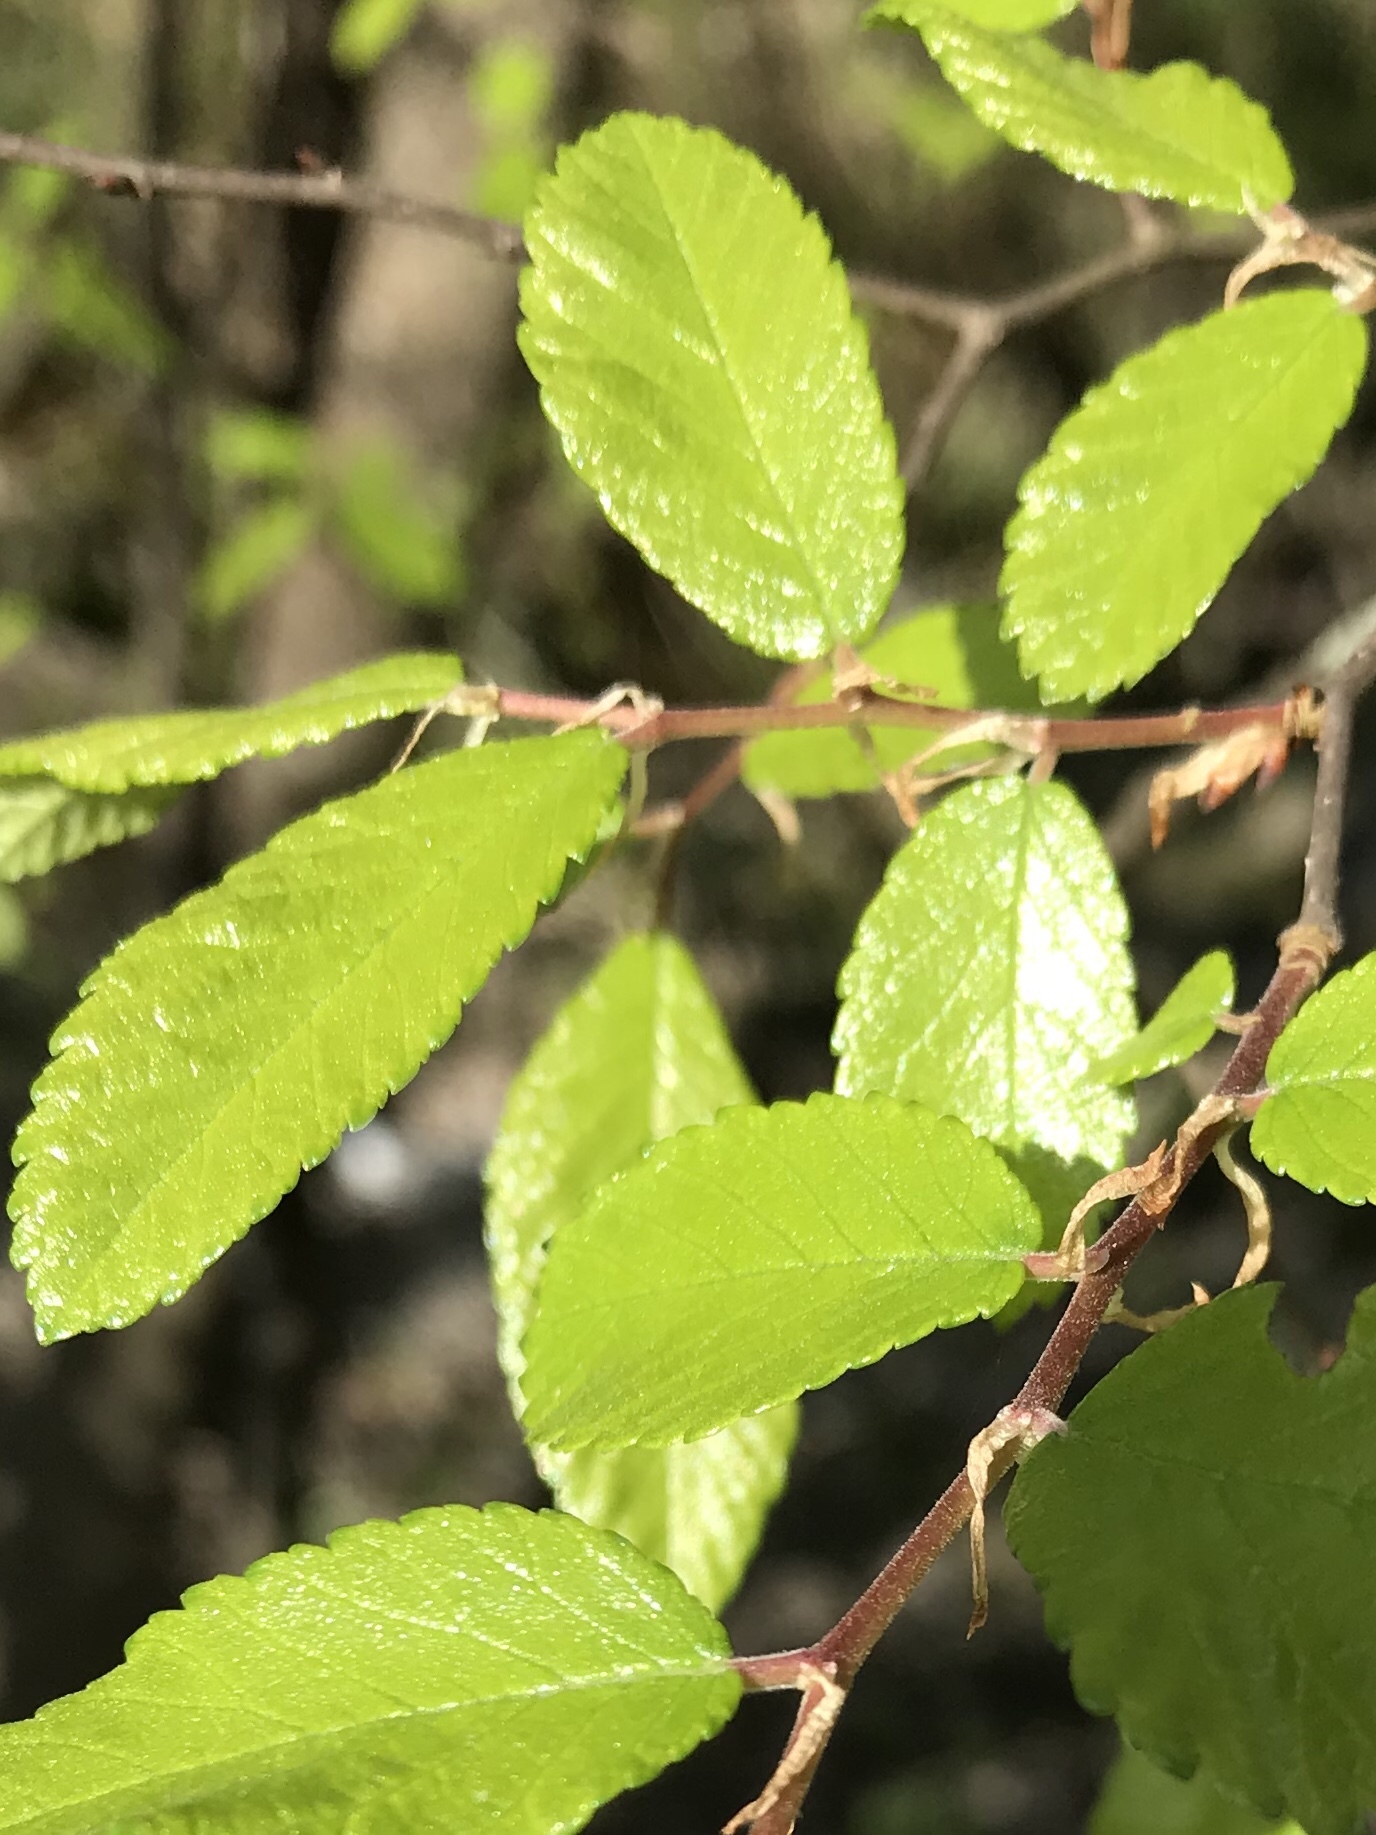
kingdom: Plantae
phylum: Tracheophyta
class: Magnoliopsida
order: Rosales
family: Ulmaceae
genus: Ulmus
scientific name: Ulmus crassifolia
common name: Basket elm
